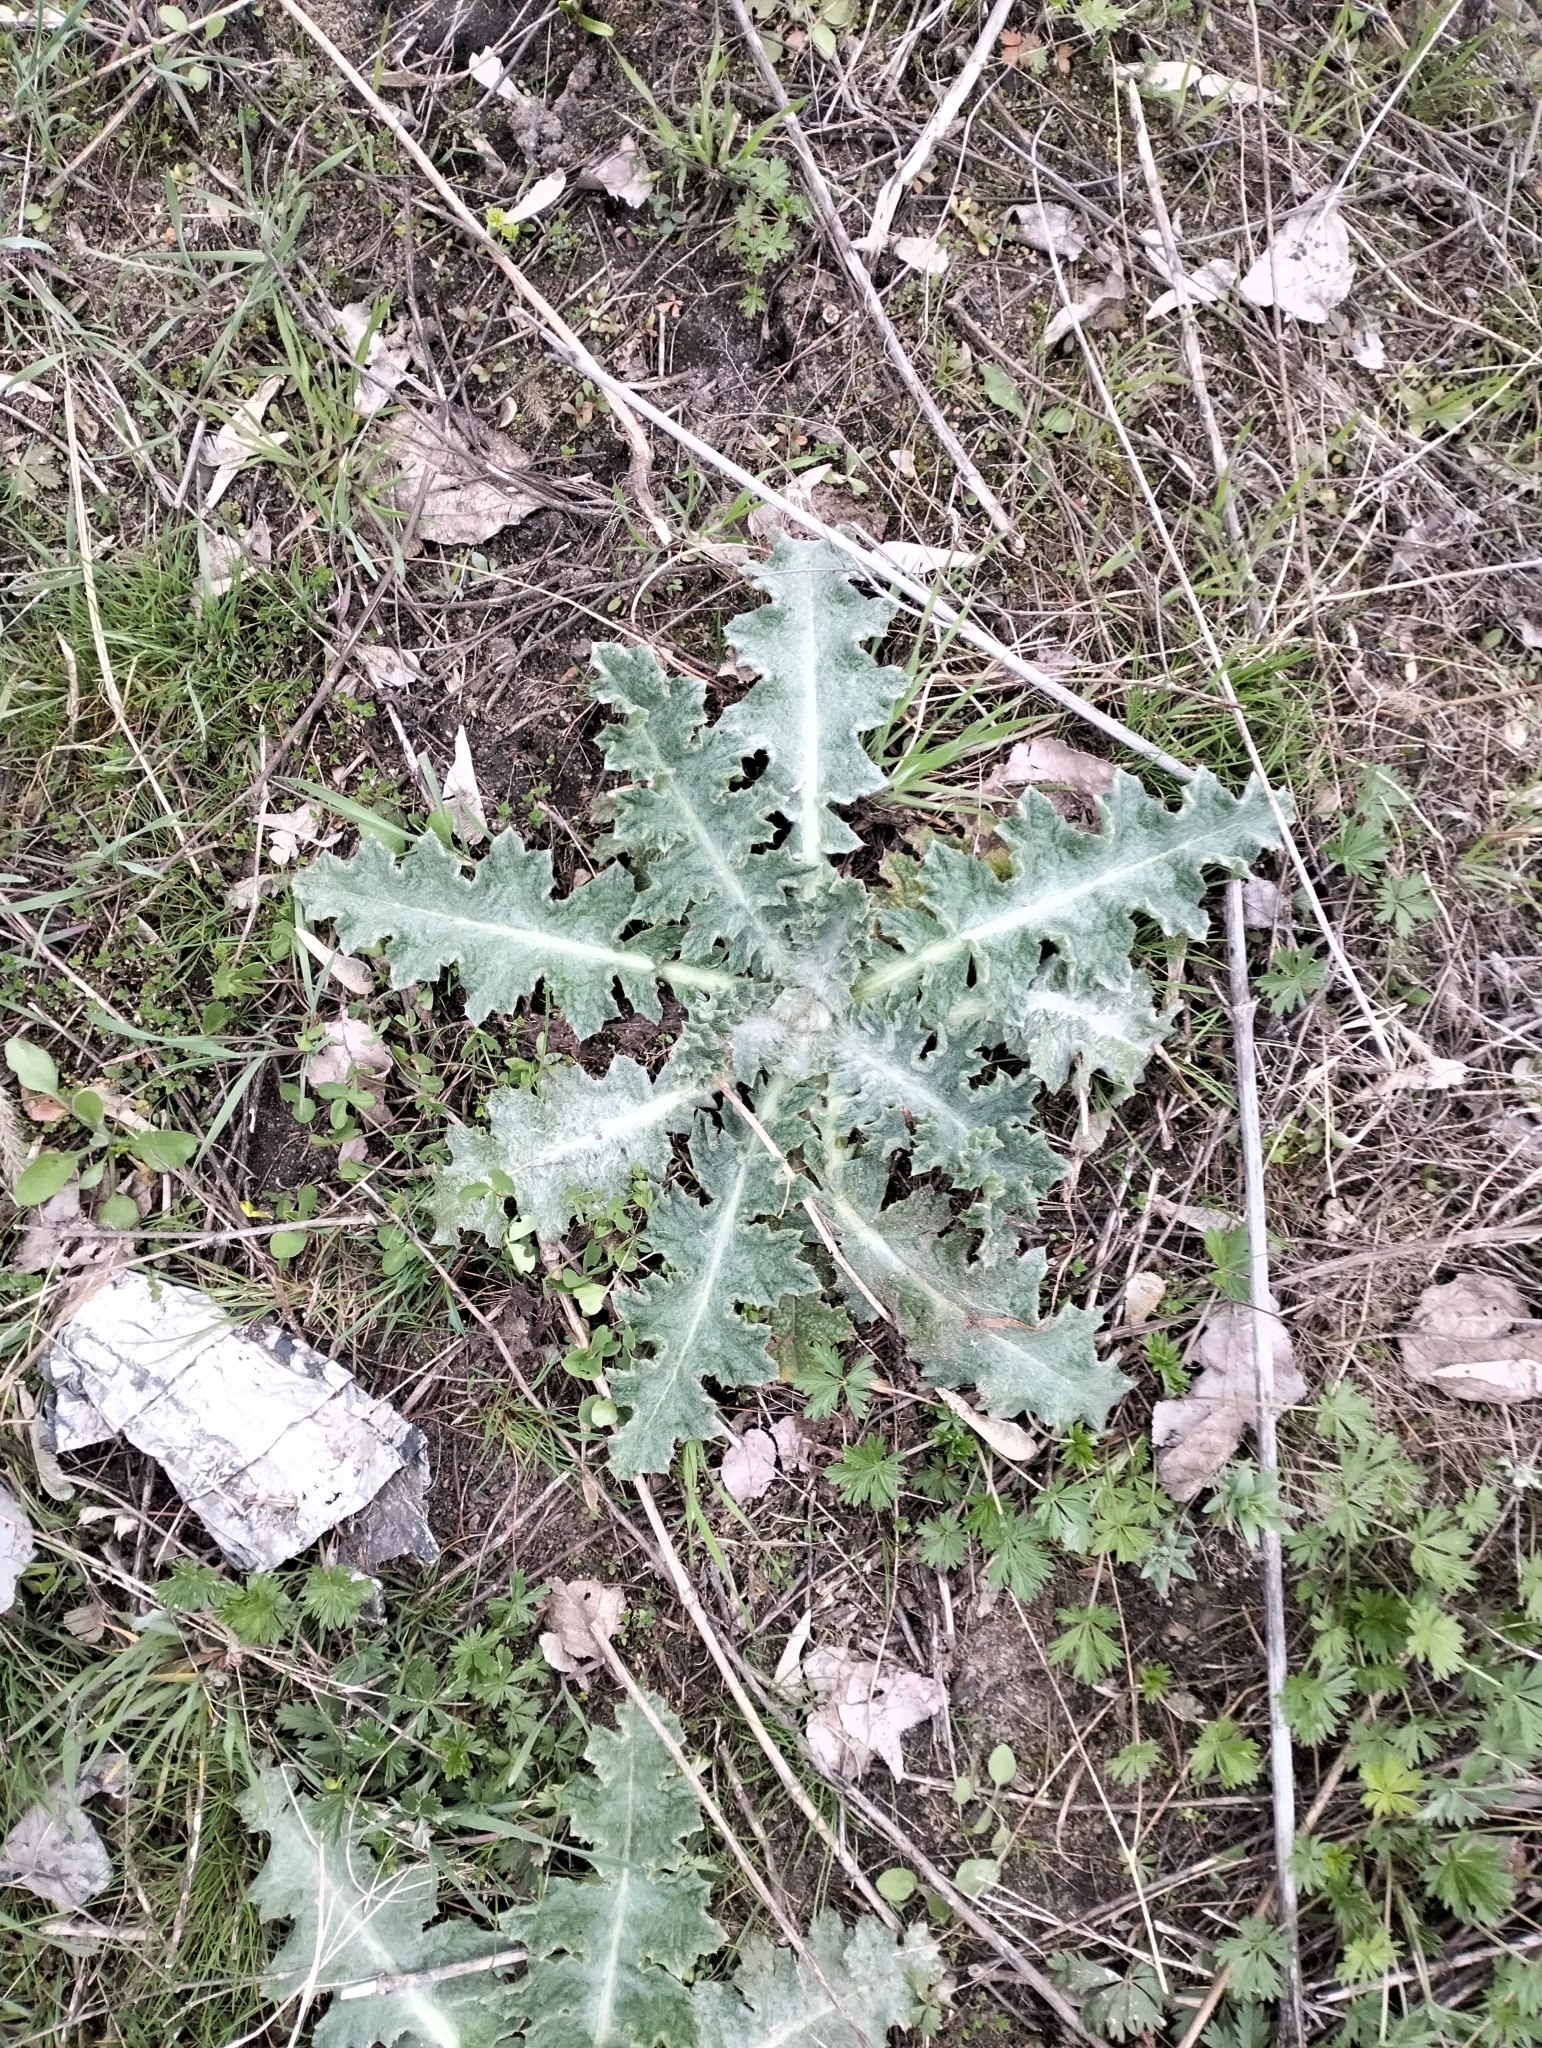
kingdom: Plantae
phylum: Tracheophyta
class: Magnoliopsida
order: Asterales
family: Asteraceae
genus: Onopordum
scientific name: Onopordum acanthium
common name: Scotch thistle
